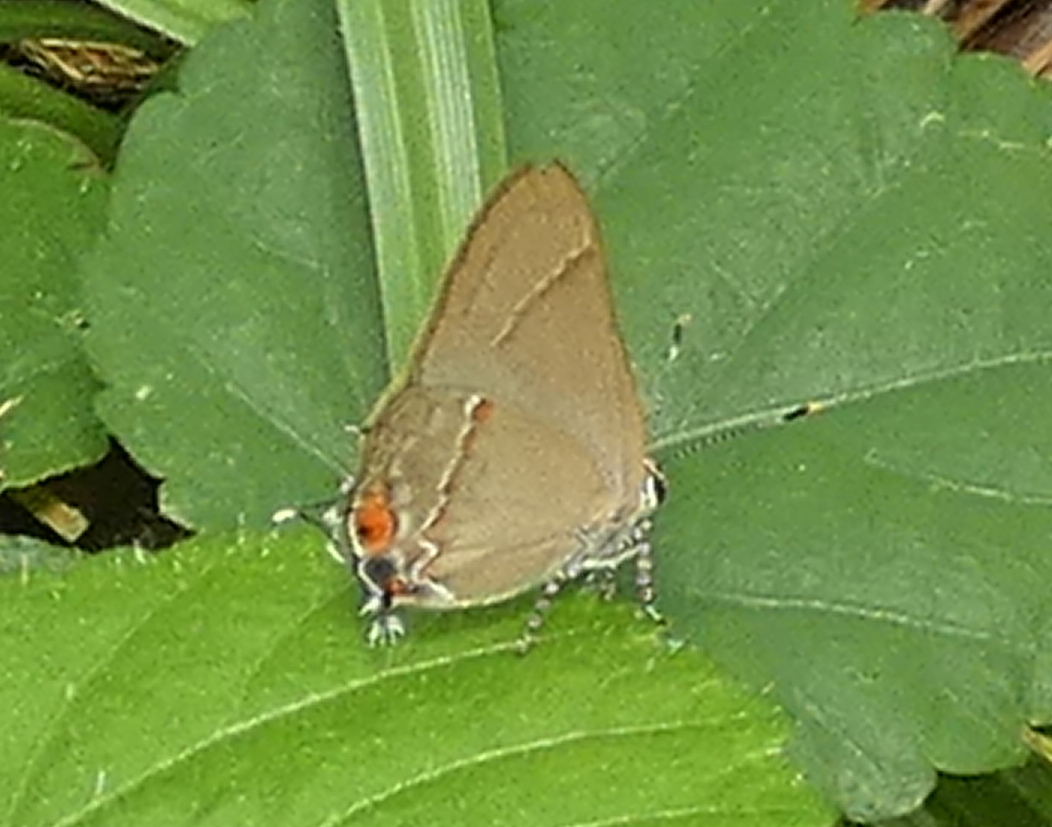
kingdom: Animalia
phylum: Arthropoda
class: Insecta
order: Lepidoptera
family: Lycaenidae
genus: Thecla
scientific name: Thecla syllis
